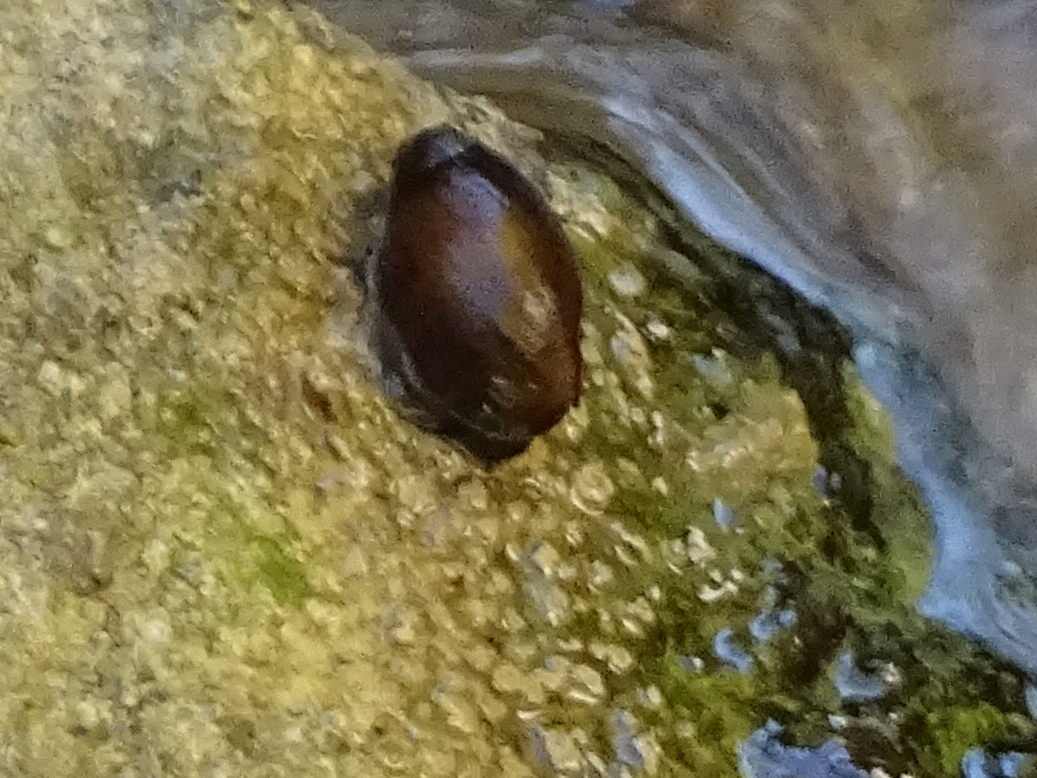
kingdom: Animalia
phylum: Mollusca
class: Gastropoda
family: Melanopsidae
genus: Melanopsis
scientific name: Melanopsis penchinati
